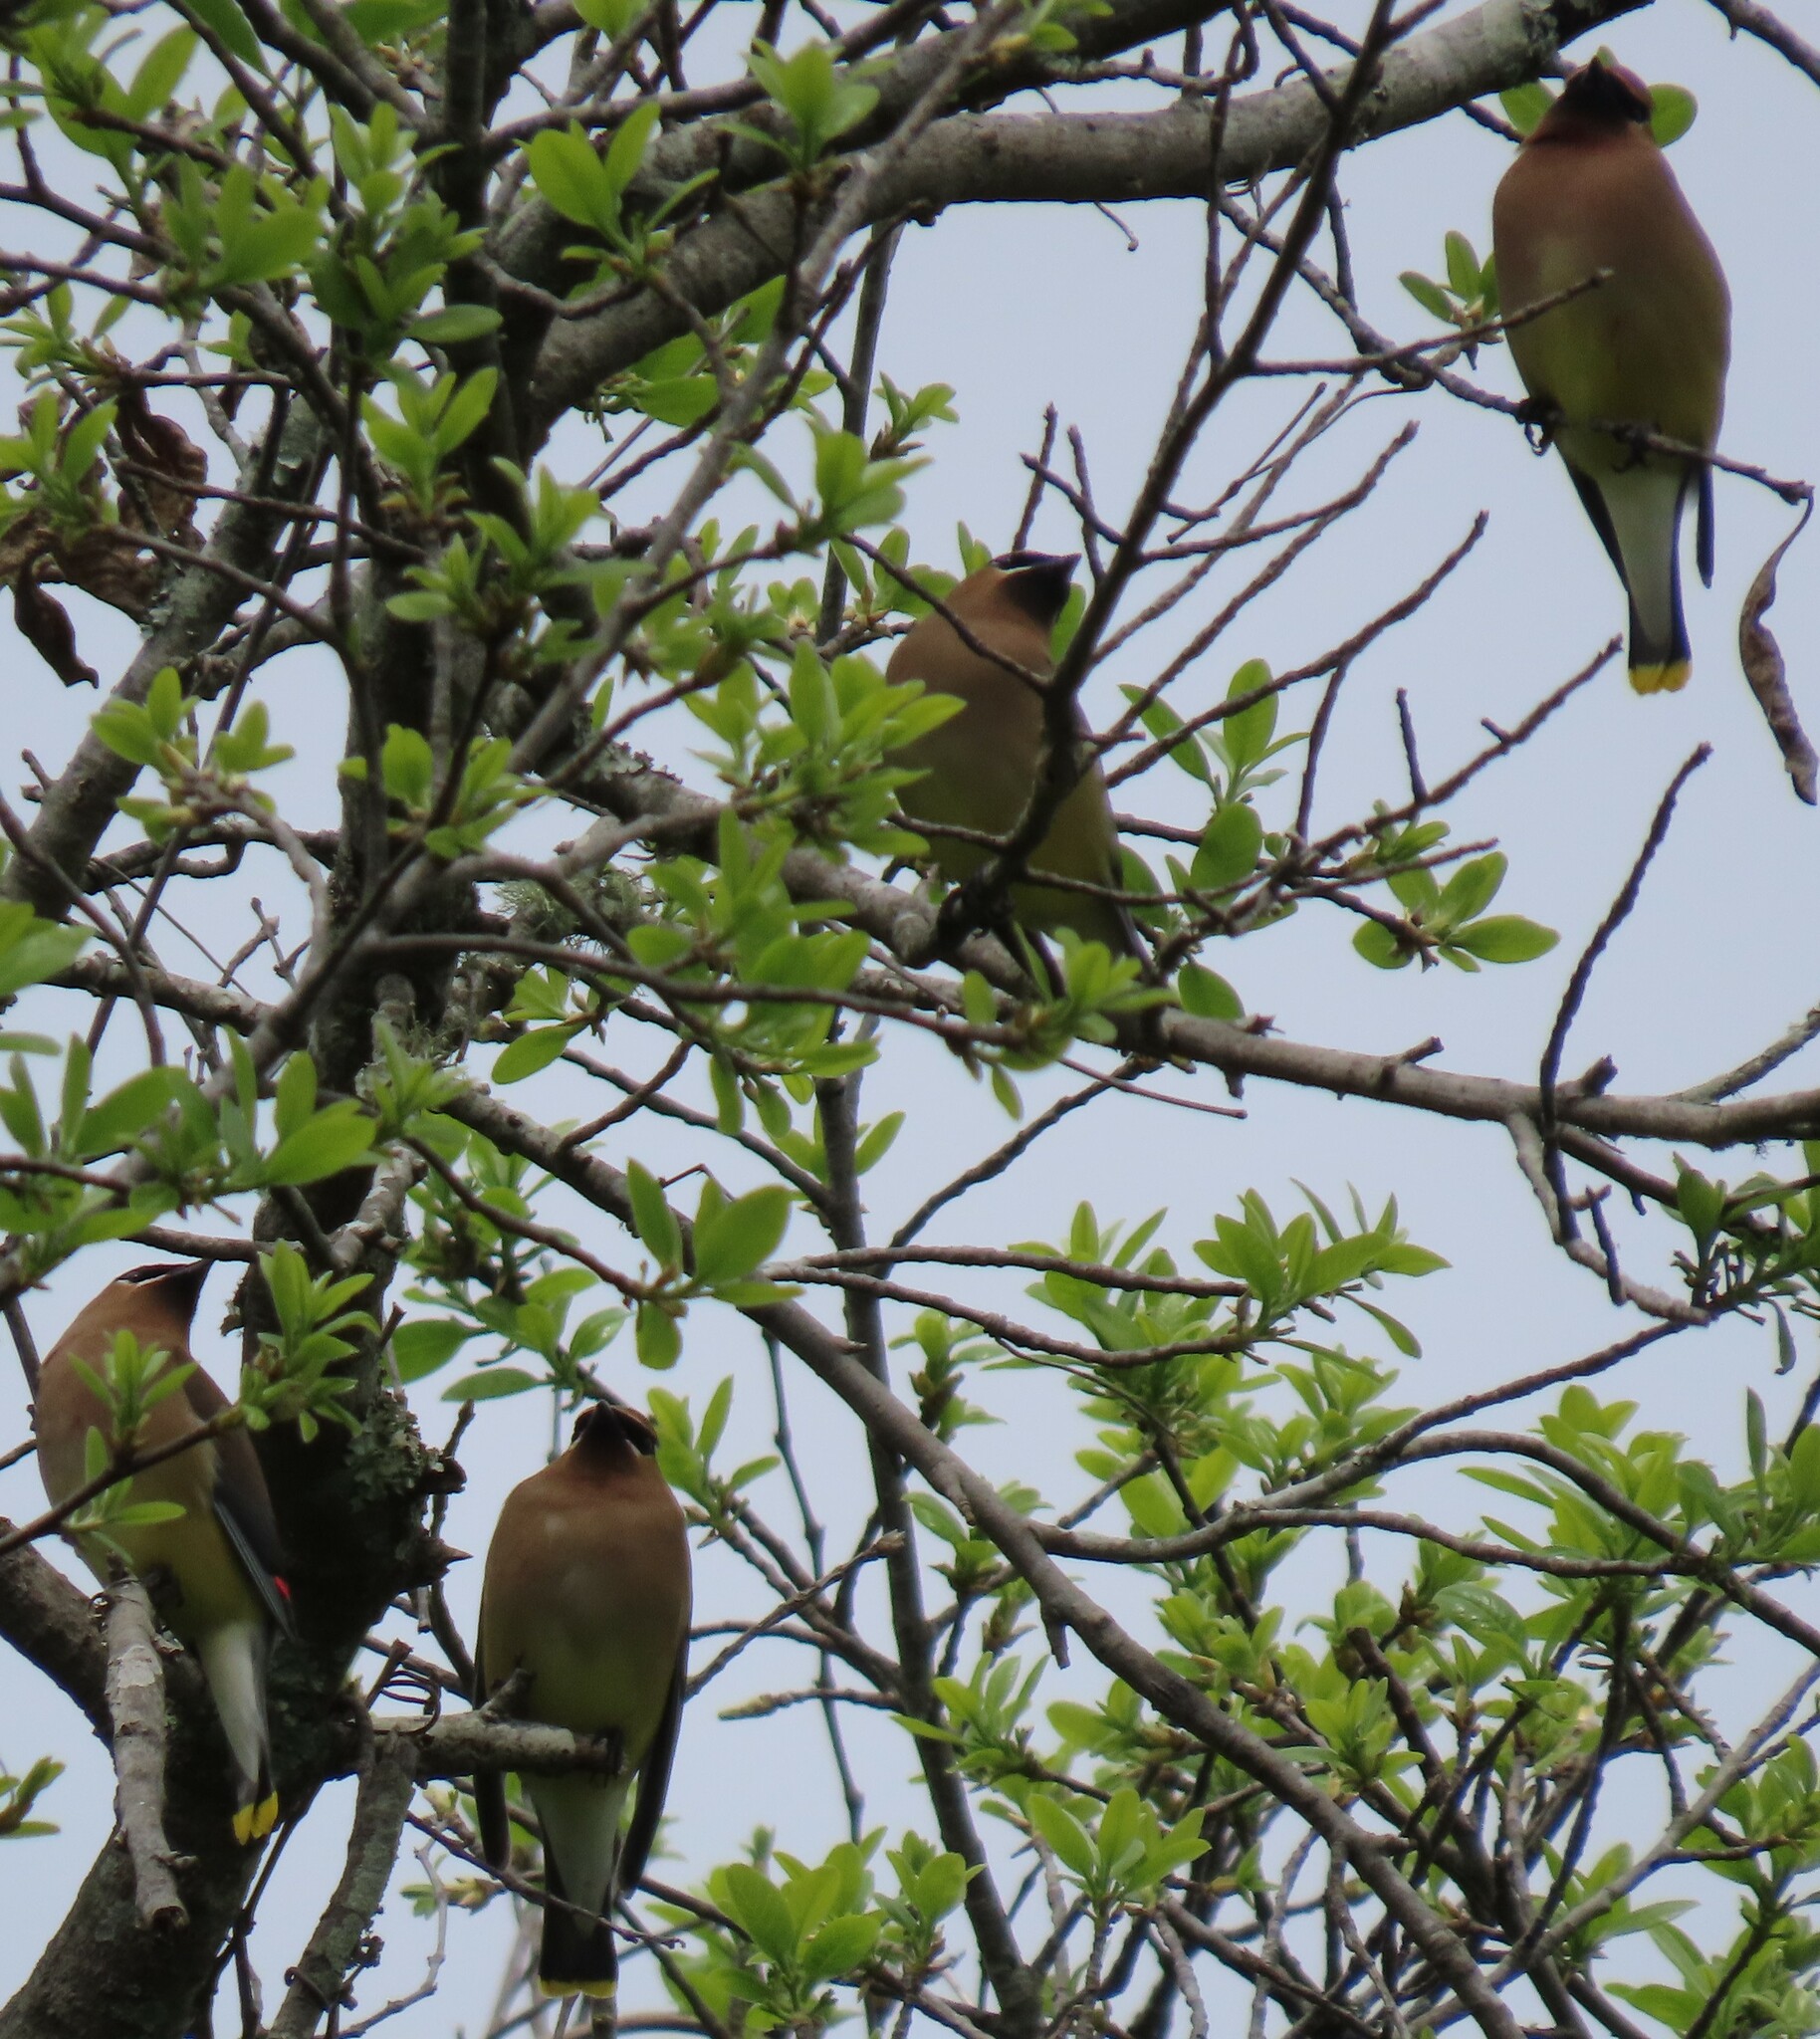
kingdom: Animalia
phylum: Chordata
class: Aves
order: Passeriformes
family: Bombycillidae
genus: Bombycilla
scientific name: Bombycilla cedrorum
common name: Cedar waxwing
